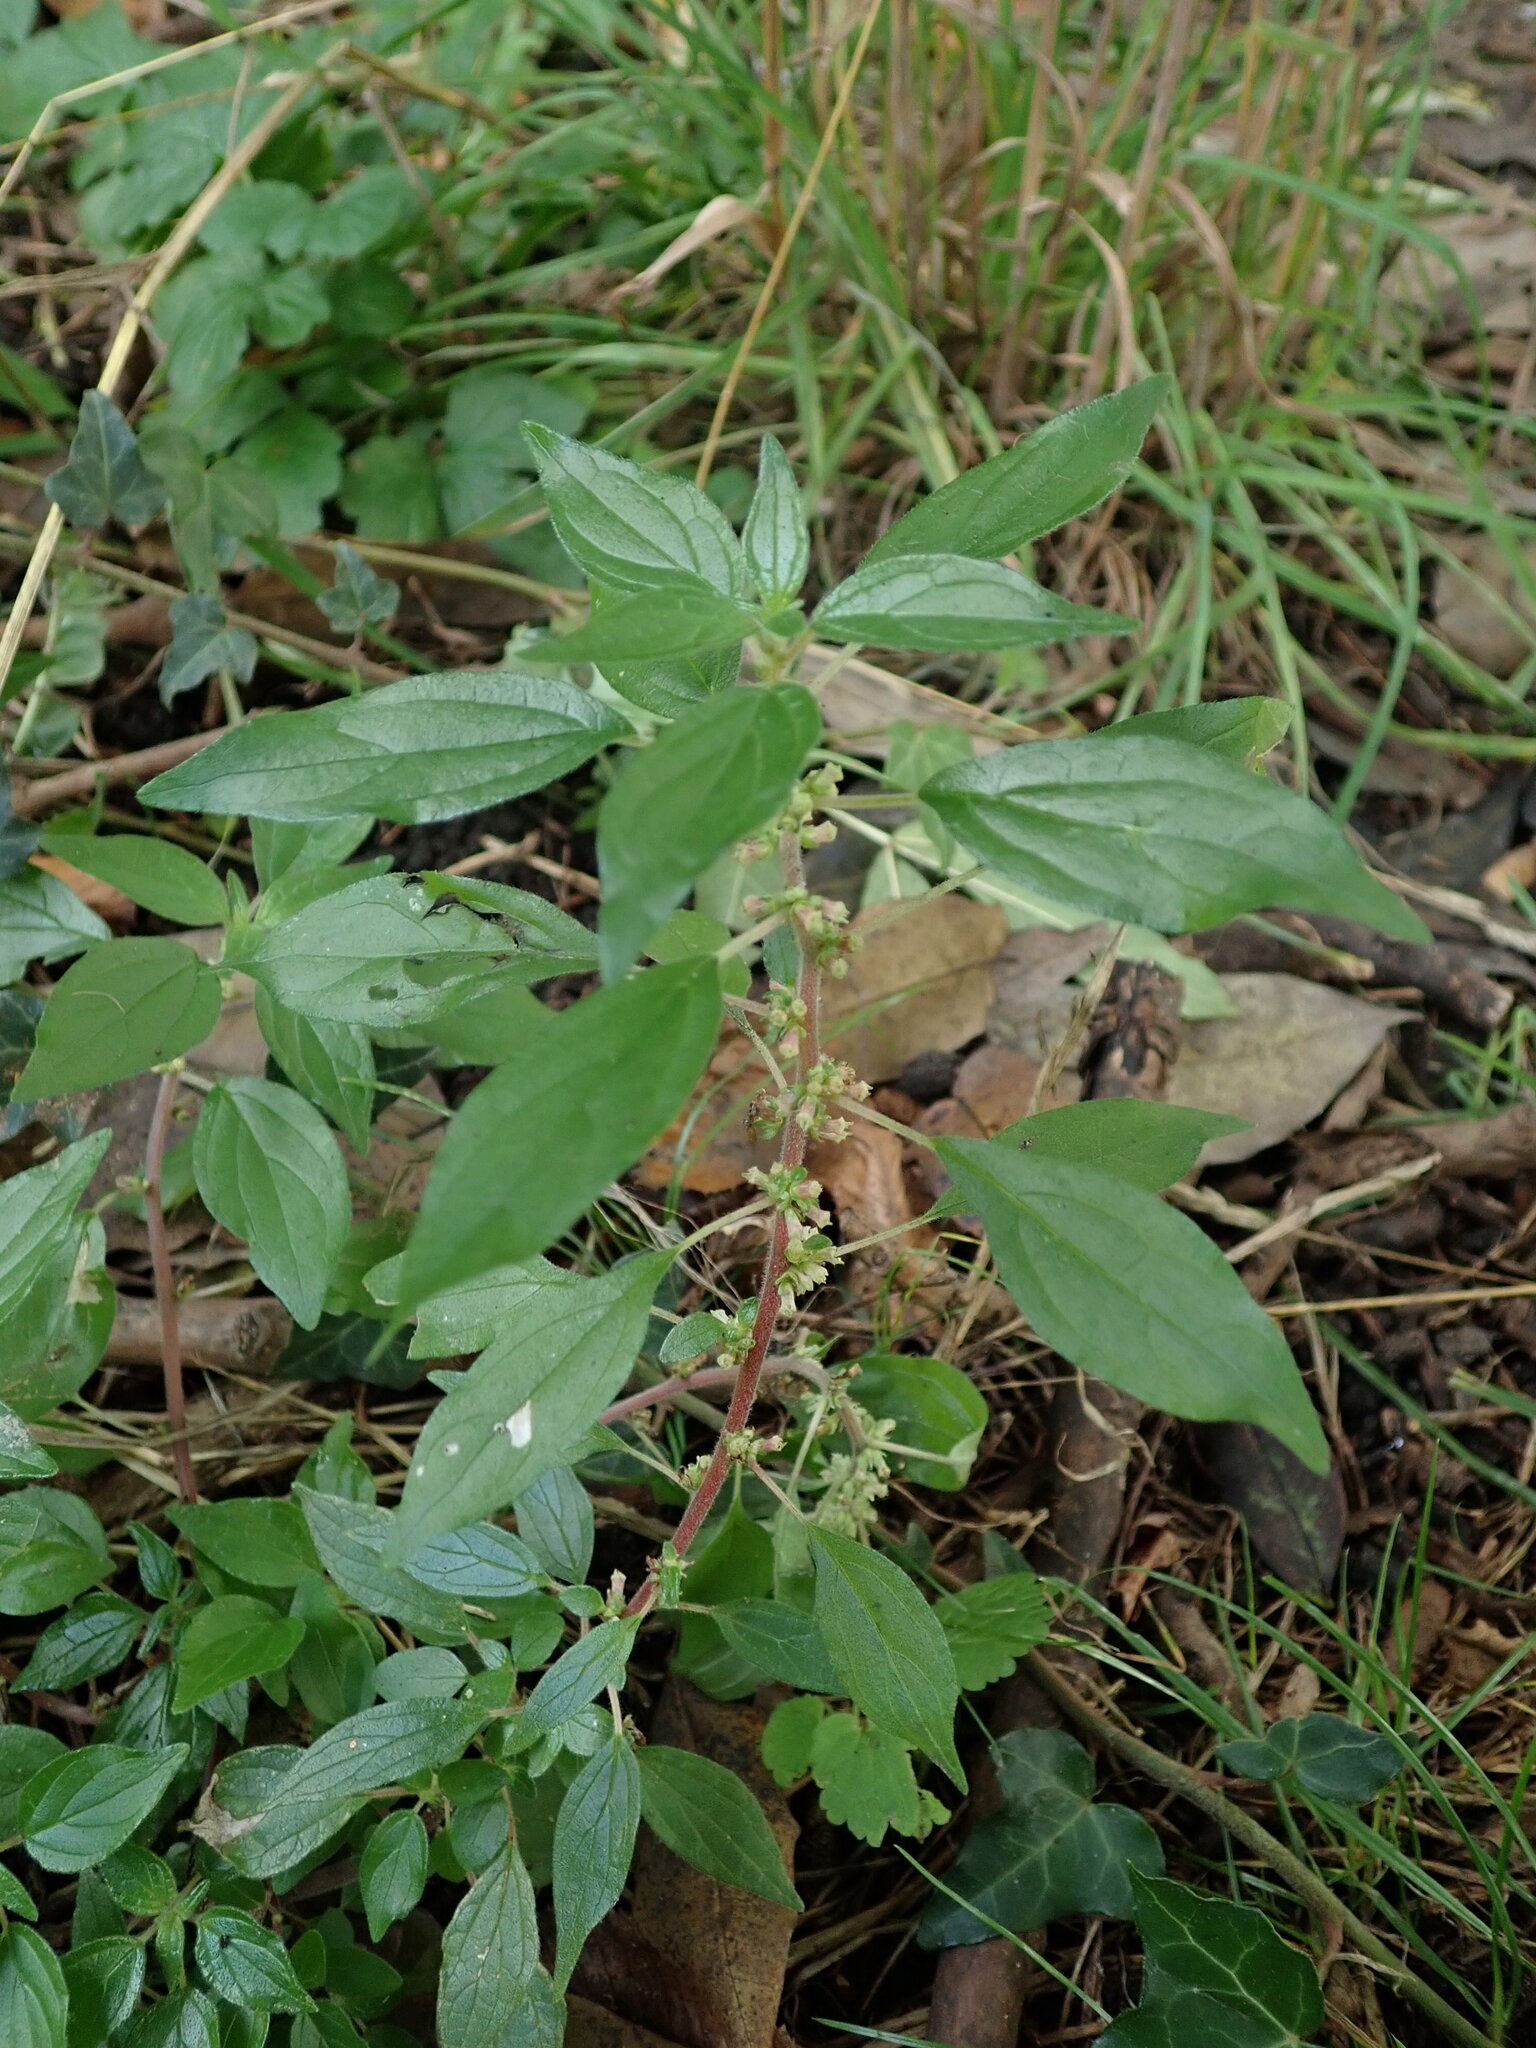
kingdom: Plantae
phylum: Tracheophyta
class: Magnoliopsida
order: Rosales
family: Urticaceae
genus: Parietaria
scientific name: Parietaria judaica
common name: Pellitory-of-the-wall
